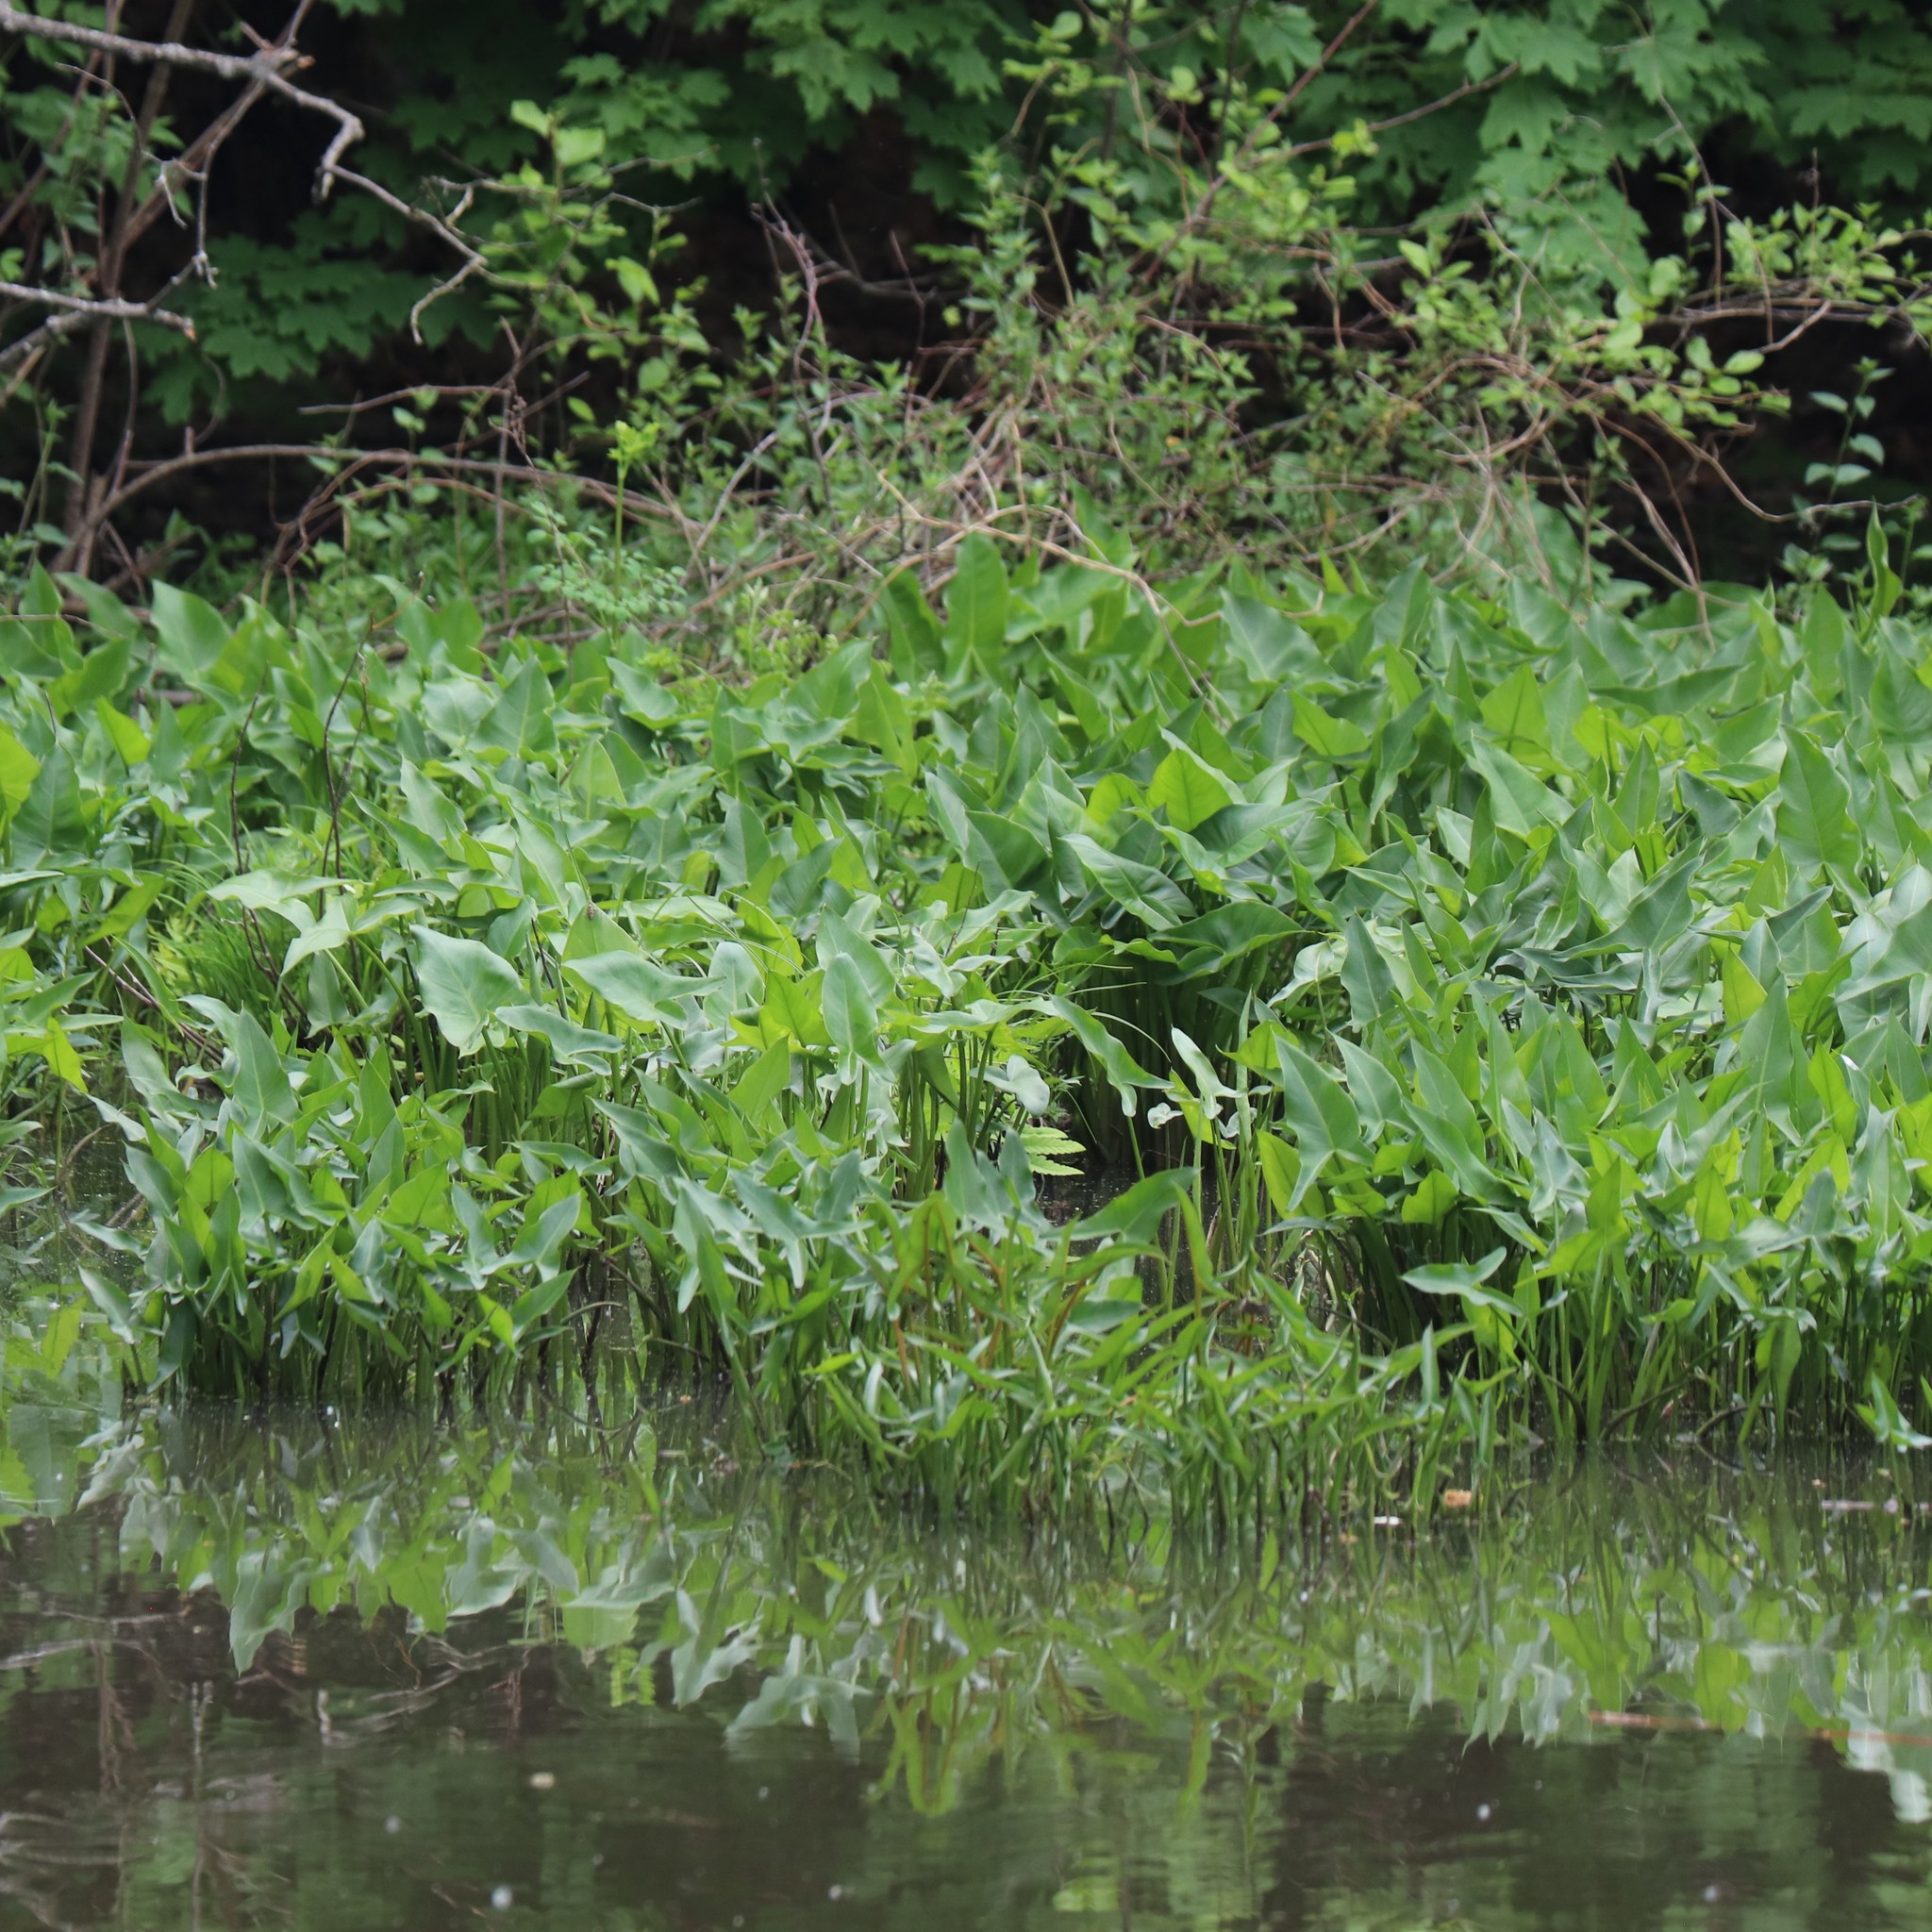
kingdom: Plantae
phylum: Tracheophyta
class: Liliopsida
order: Alismatales
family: Araceae
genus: Peltandra
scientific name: Peltandra virginica
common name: Arrow arum
